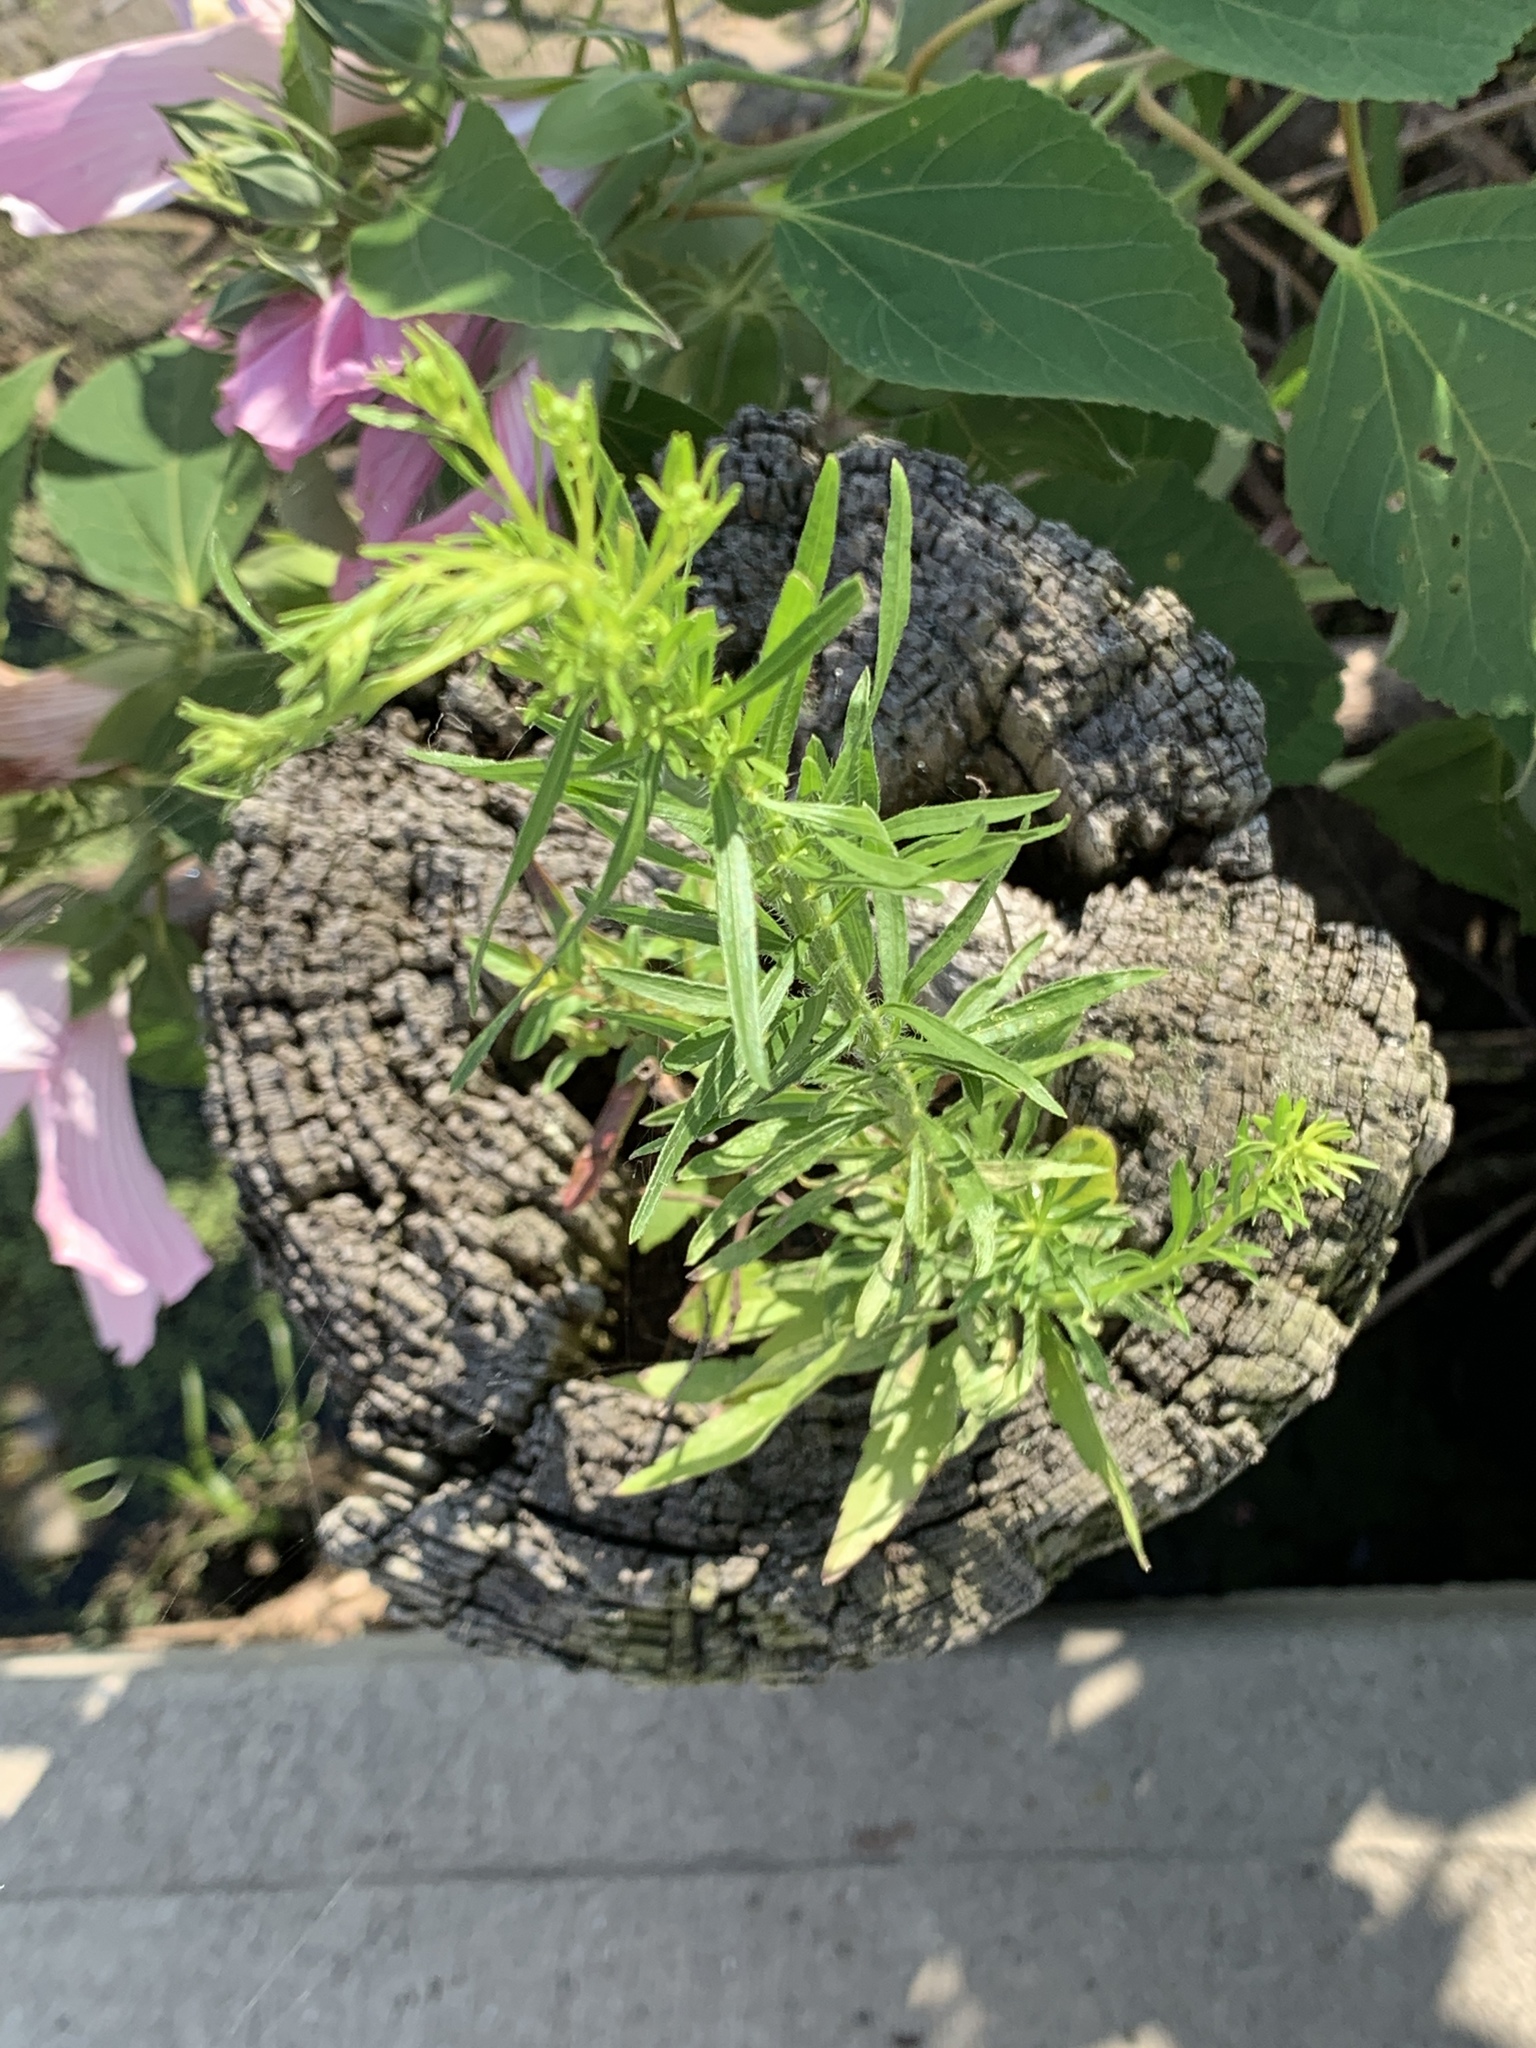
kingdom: Plantae
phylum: Tracheophyta
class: Magnoliopsida
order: Asterales
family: Asteraceae
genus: Erigeron
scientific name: Erigeron canadensis
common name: Canadian fleabane
